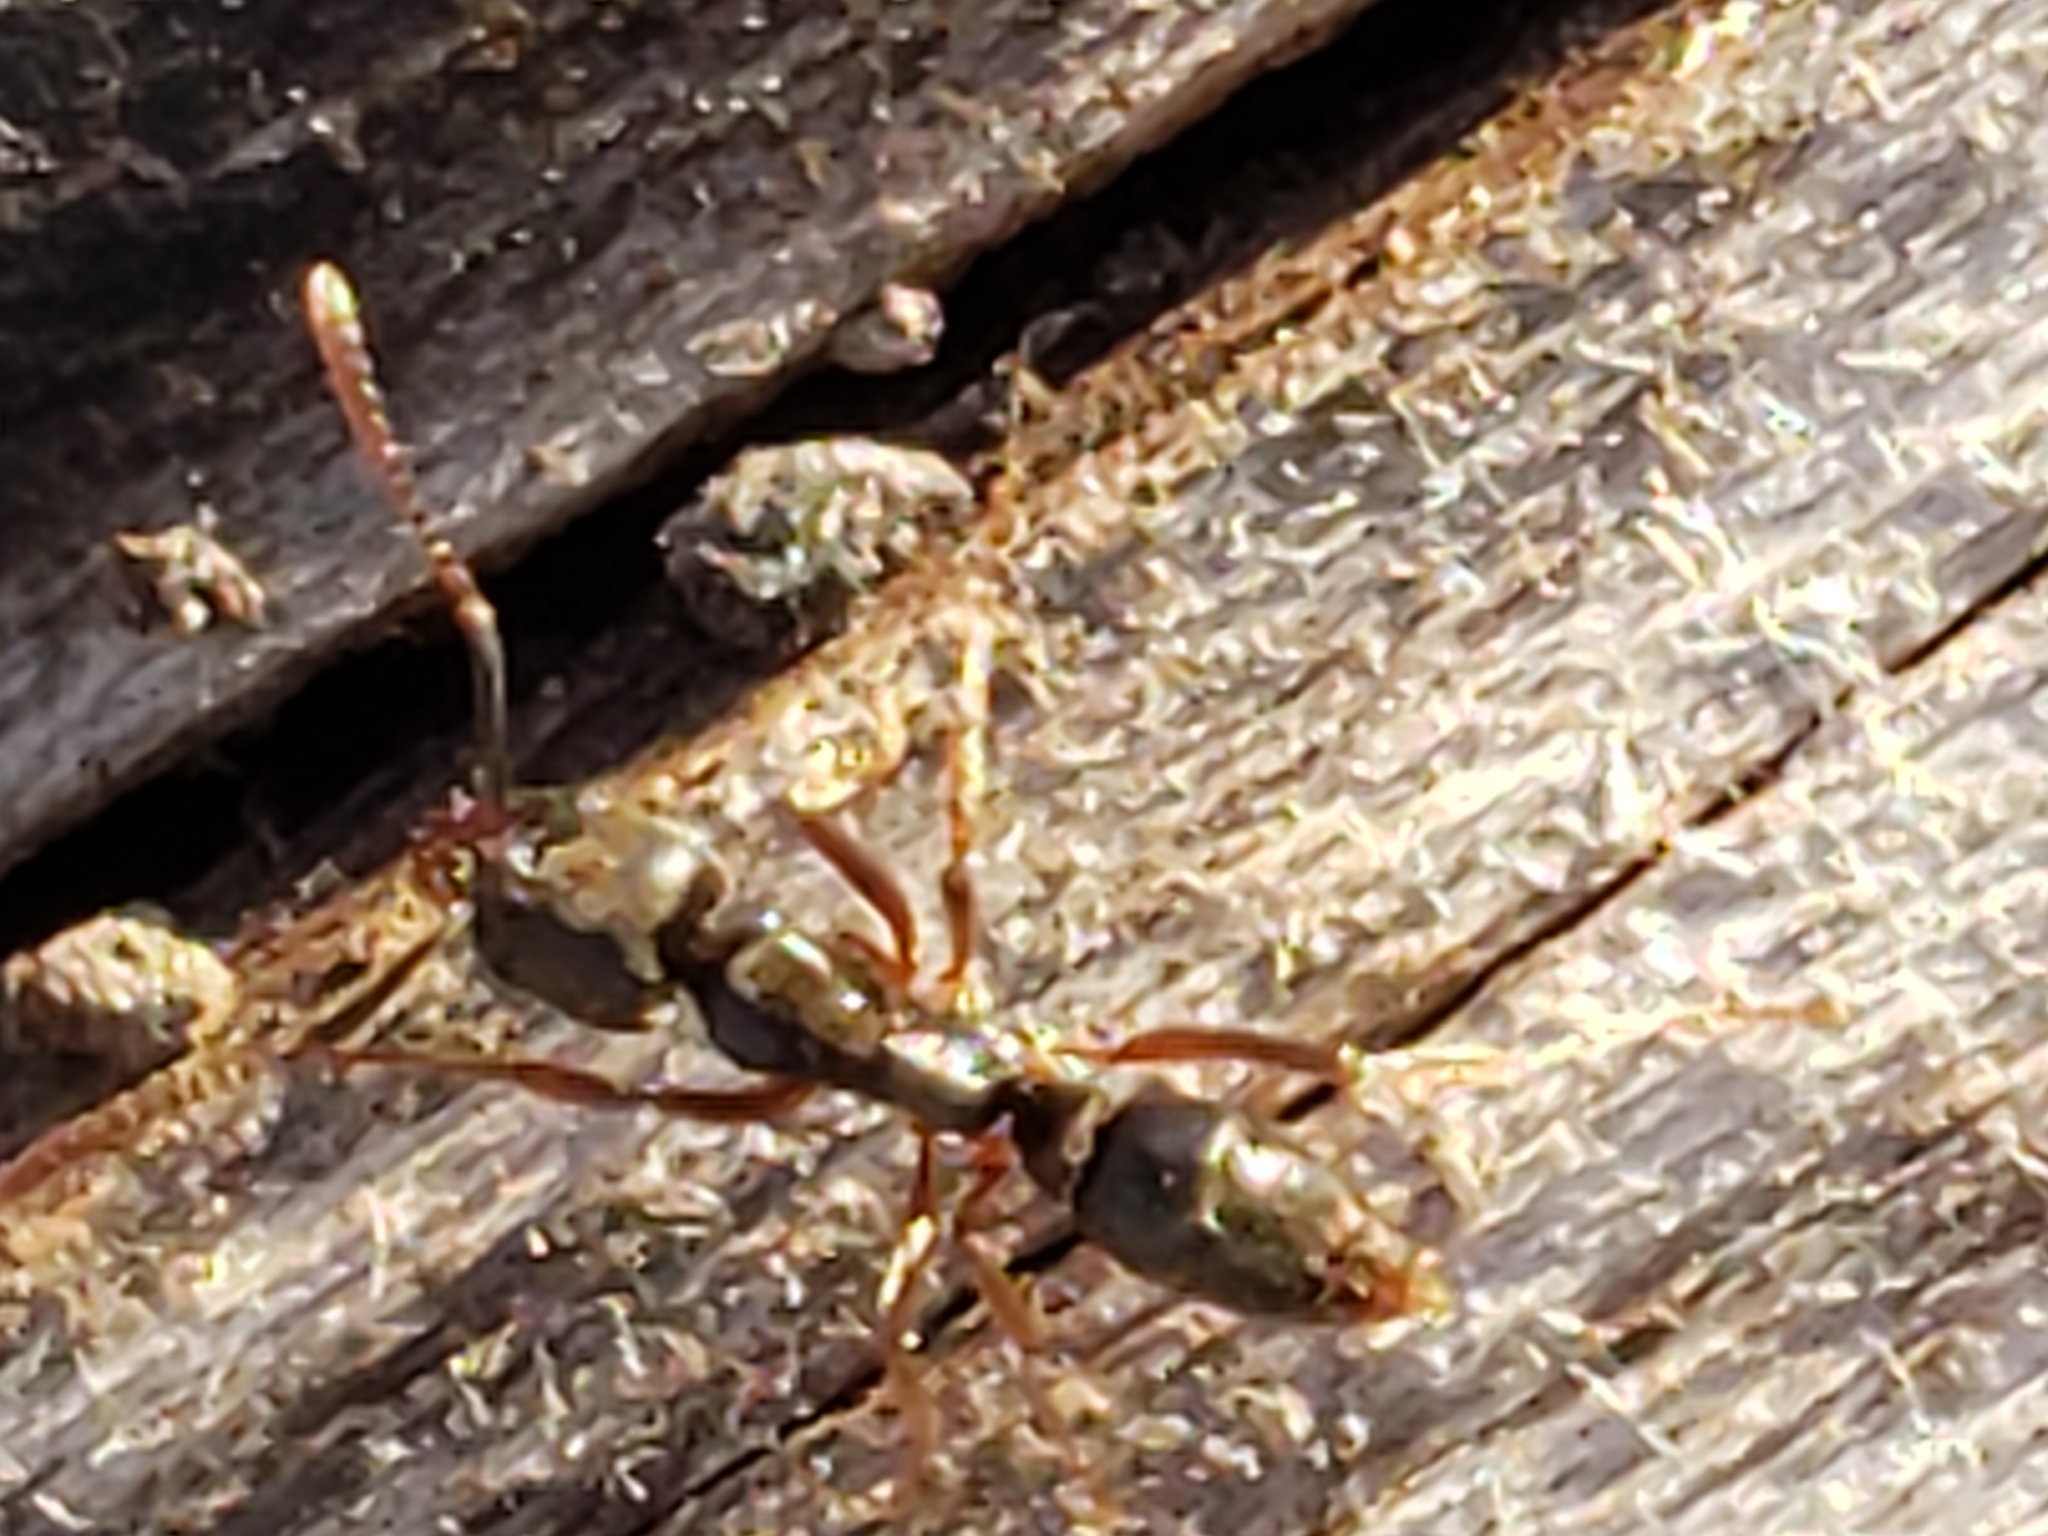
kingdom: Animalia
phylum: Arthropoda
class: Insecta
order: Hymenoptera
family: Formicidae
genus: Pachycondyla
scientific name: Pachycondyla chinensis
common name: Asian needle ant
